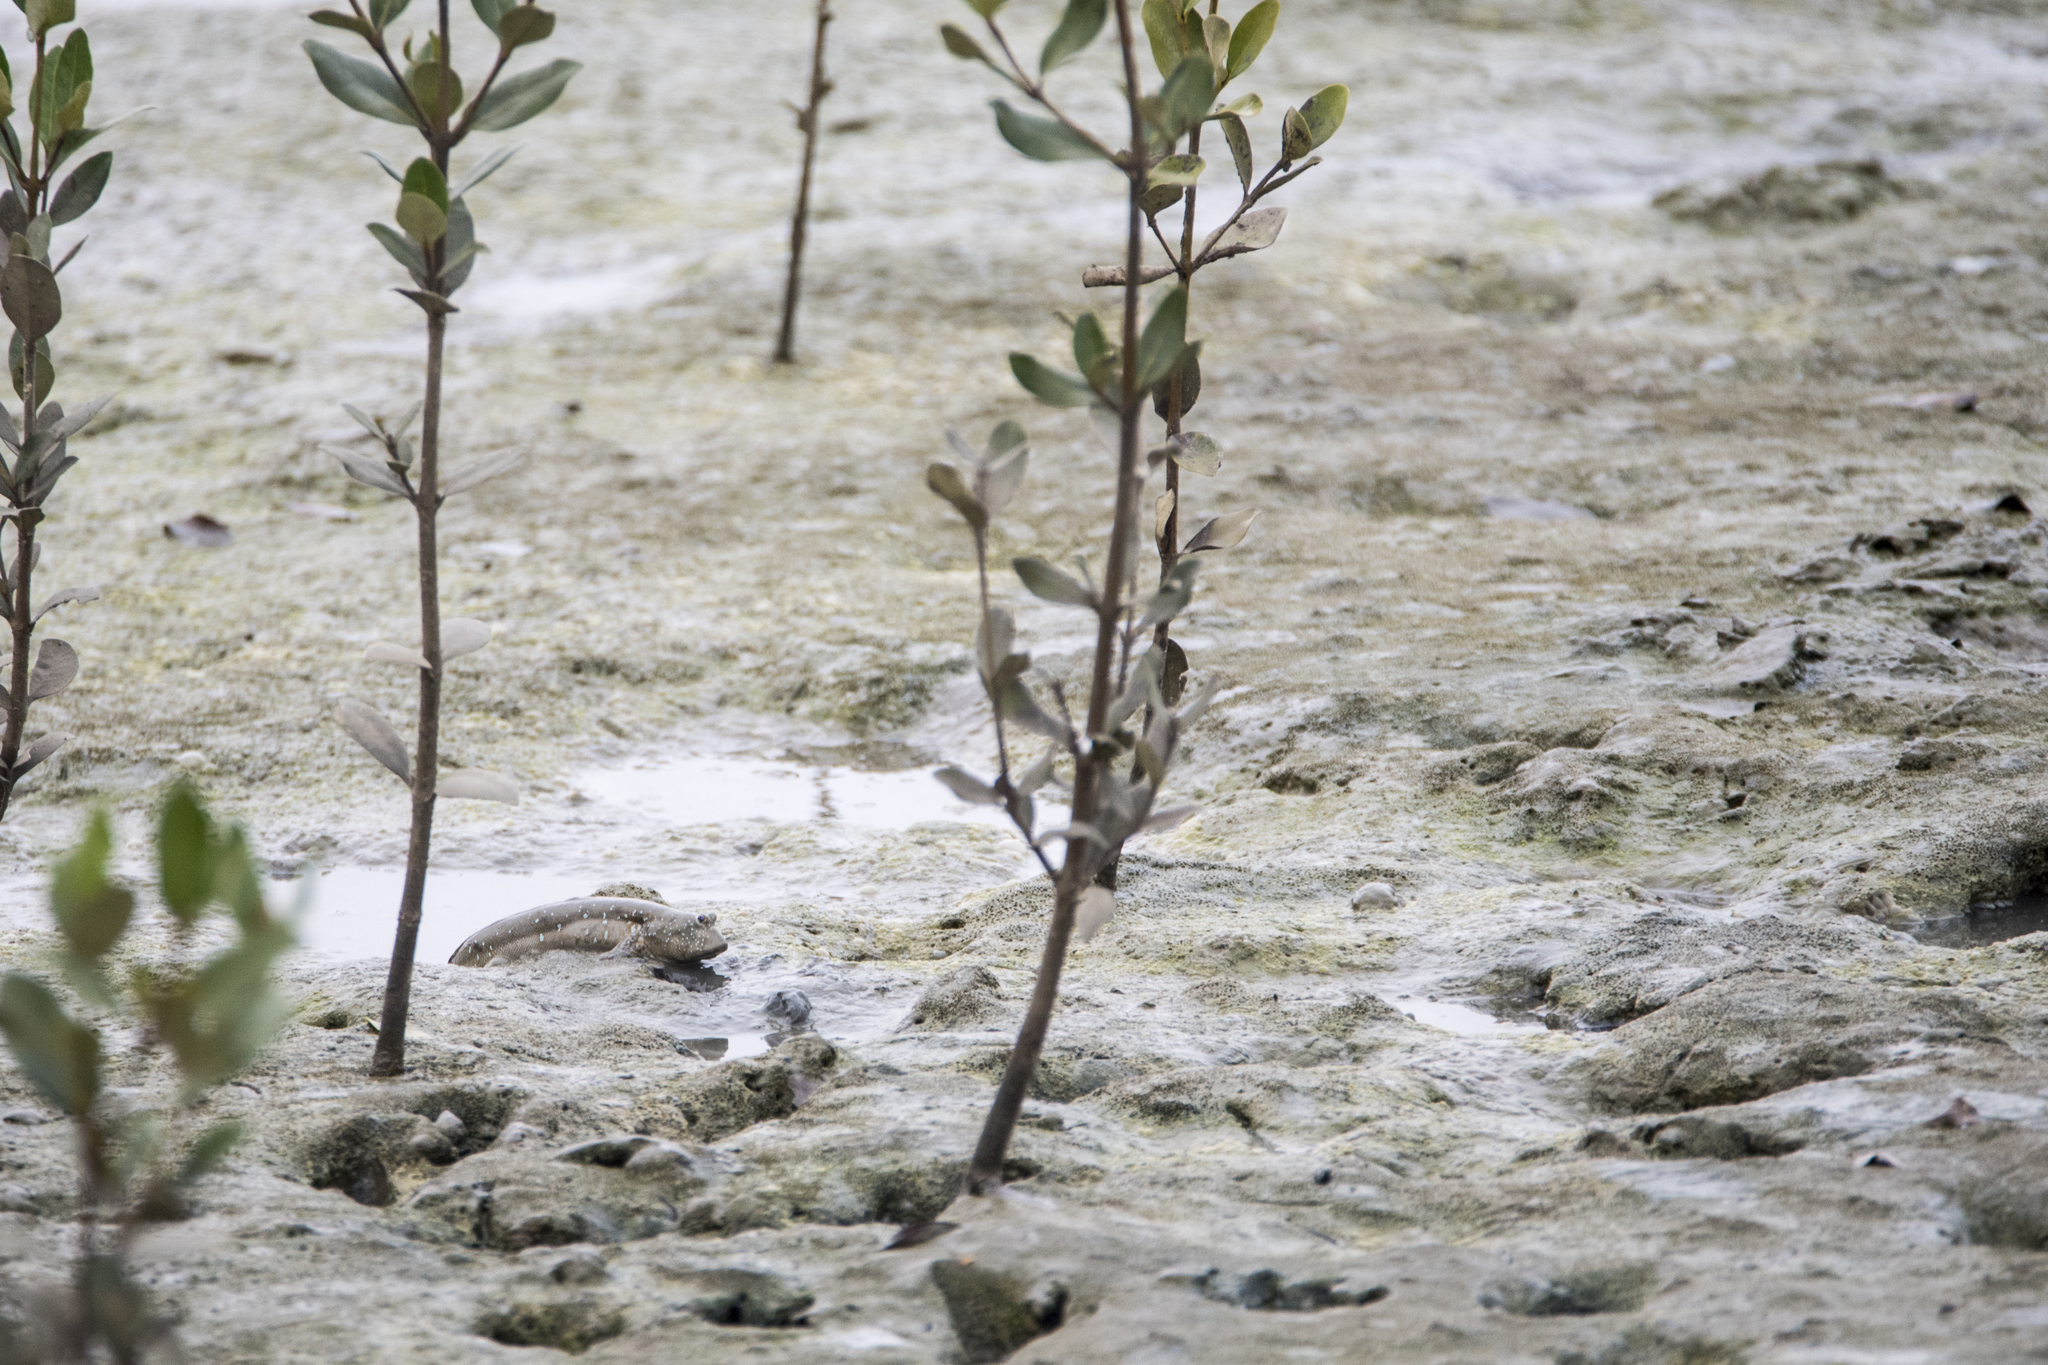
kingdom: Animalia
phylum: Chordata
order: Perciformes
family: Gobiidae
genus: Boleophthalmus
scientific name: Boleophthalmus pectinirostris
